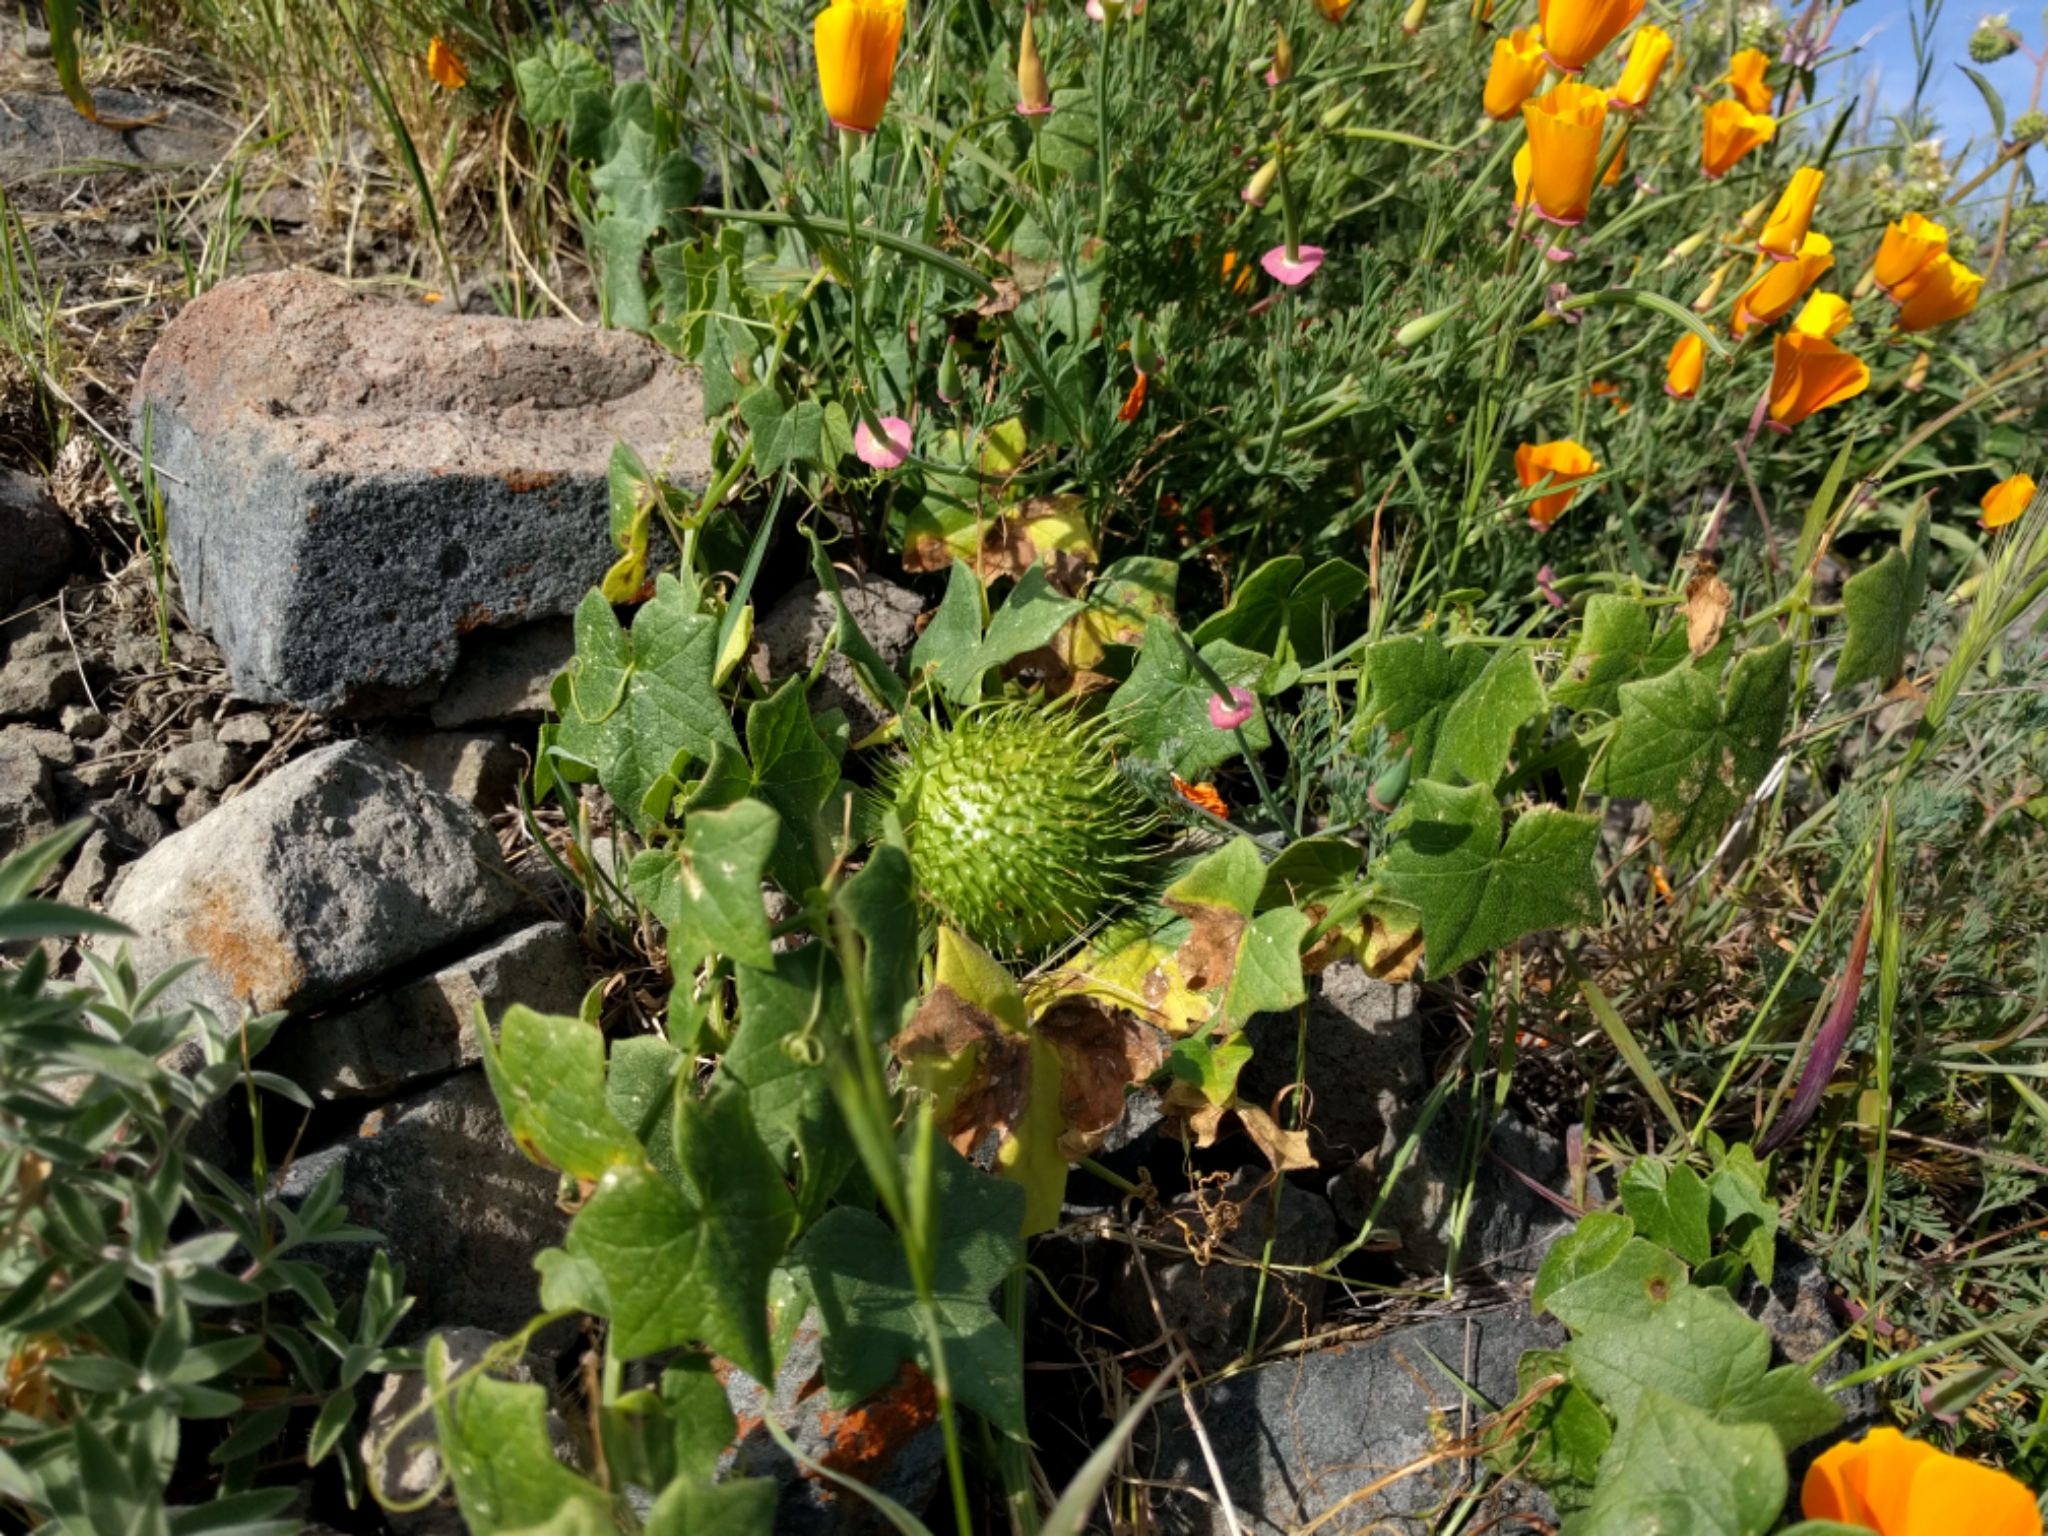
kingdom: Plantae
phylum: Tracheophyta
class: Magnoliopsida
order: Cucurbitales
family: Cucurbitaceae
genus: Marah
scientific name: Marah fabacea
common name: California manroot
